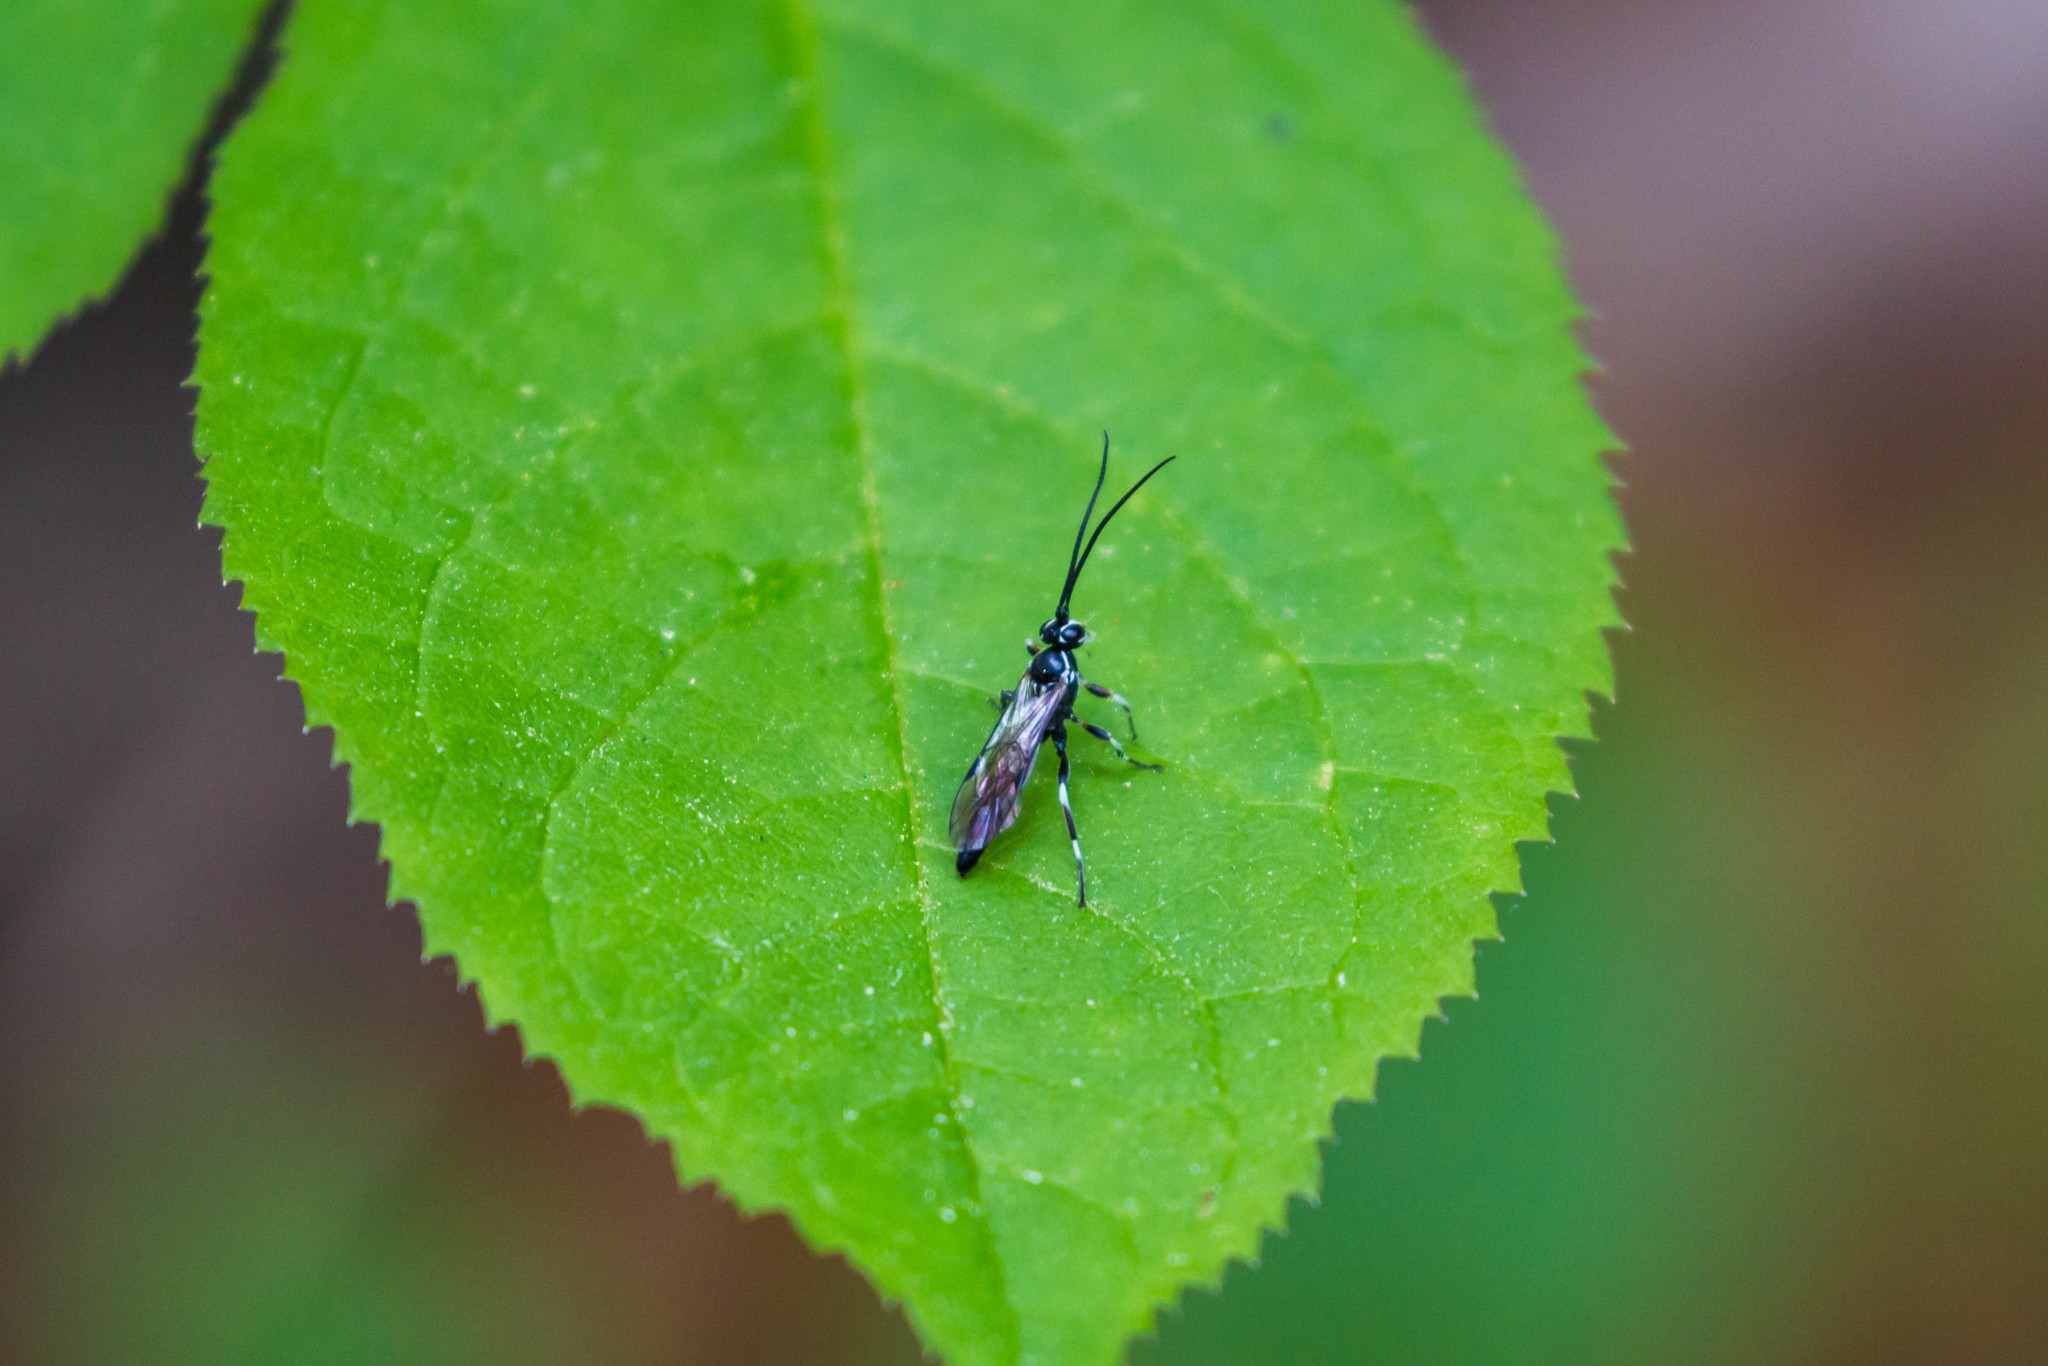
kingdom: Animalia
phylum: Arthropoda
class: Insecta
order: Hymenoptera
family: Ichneumonidae
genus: Coelichneumon
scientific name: Coelichneumon navus
